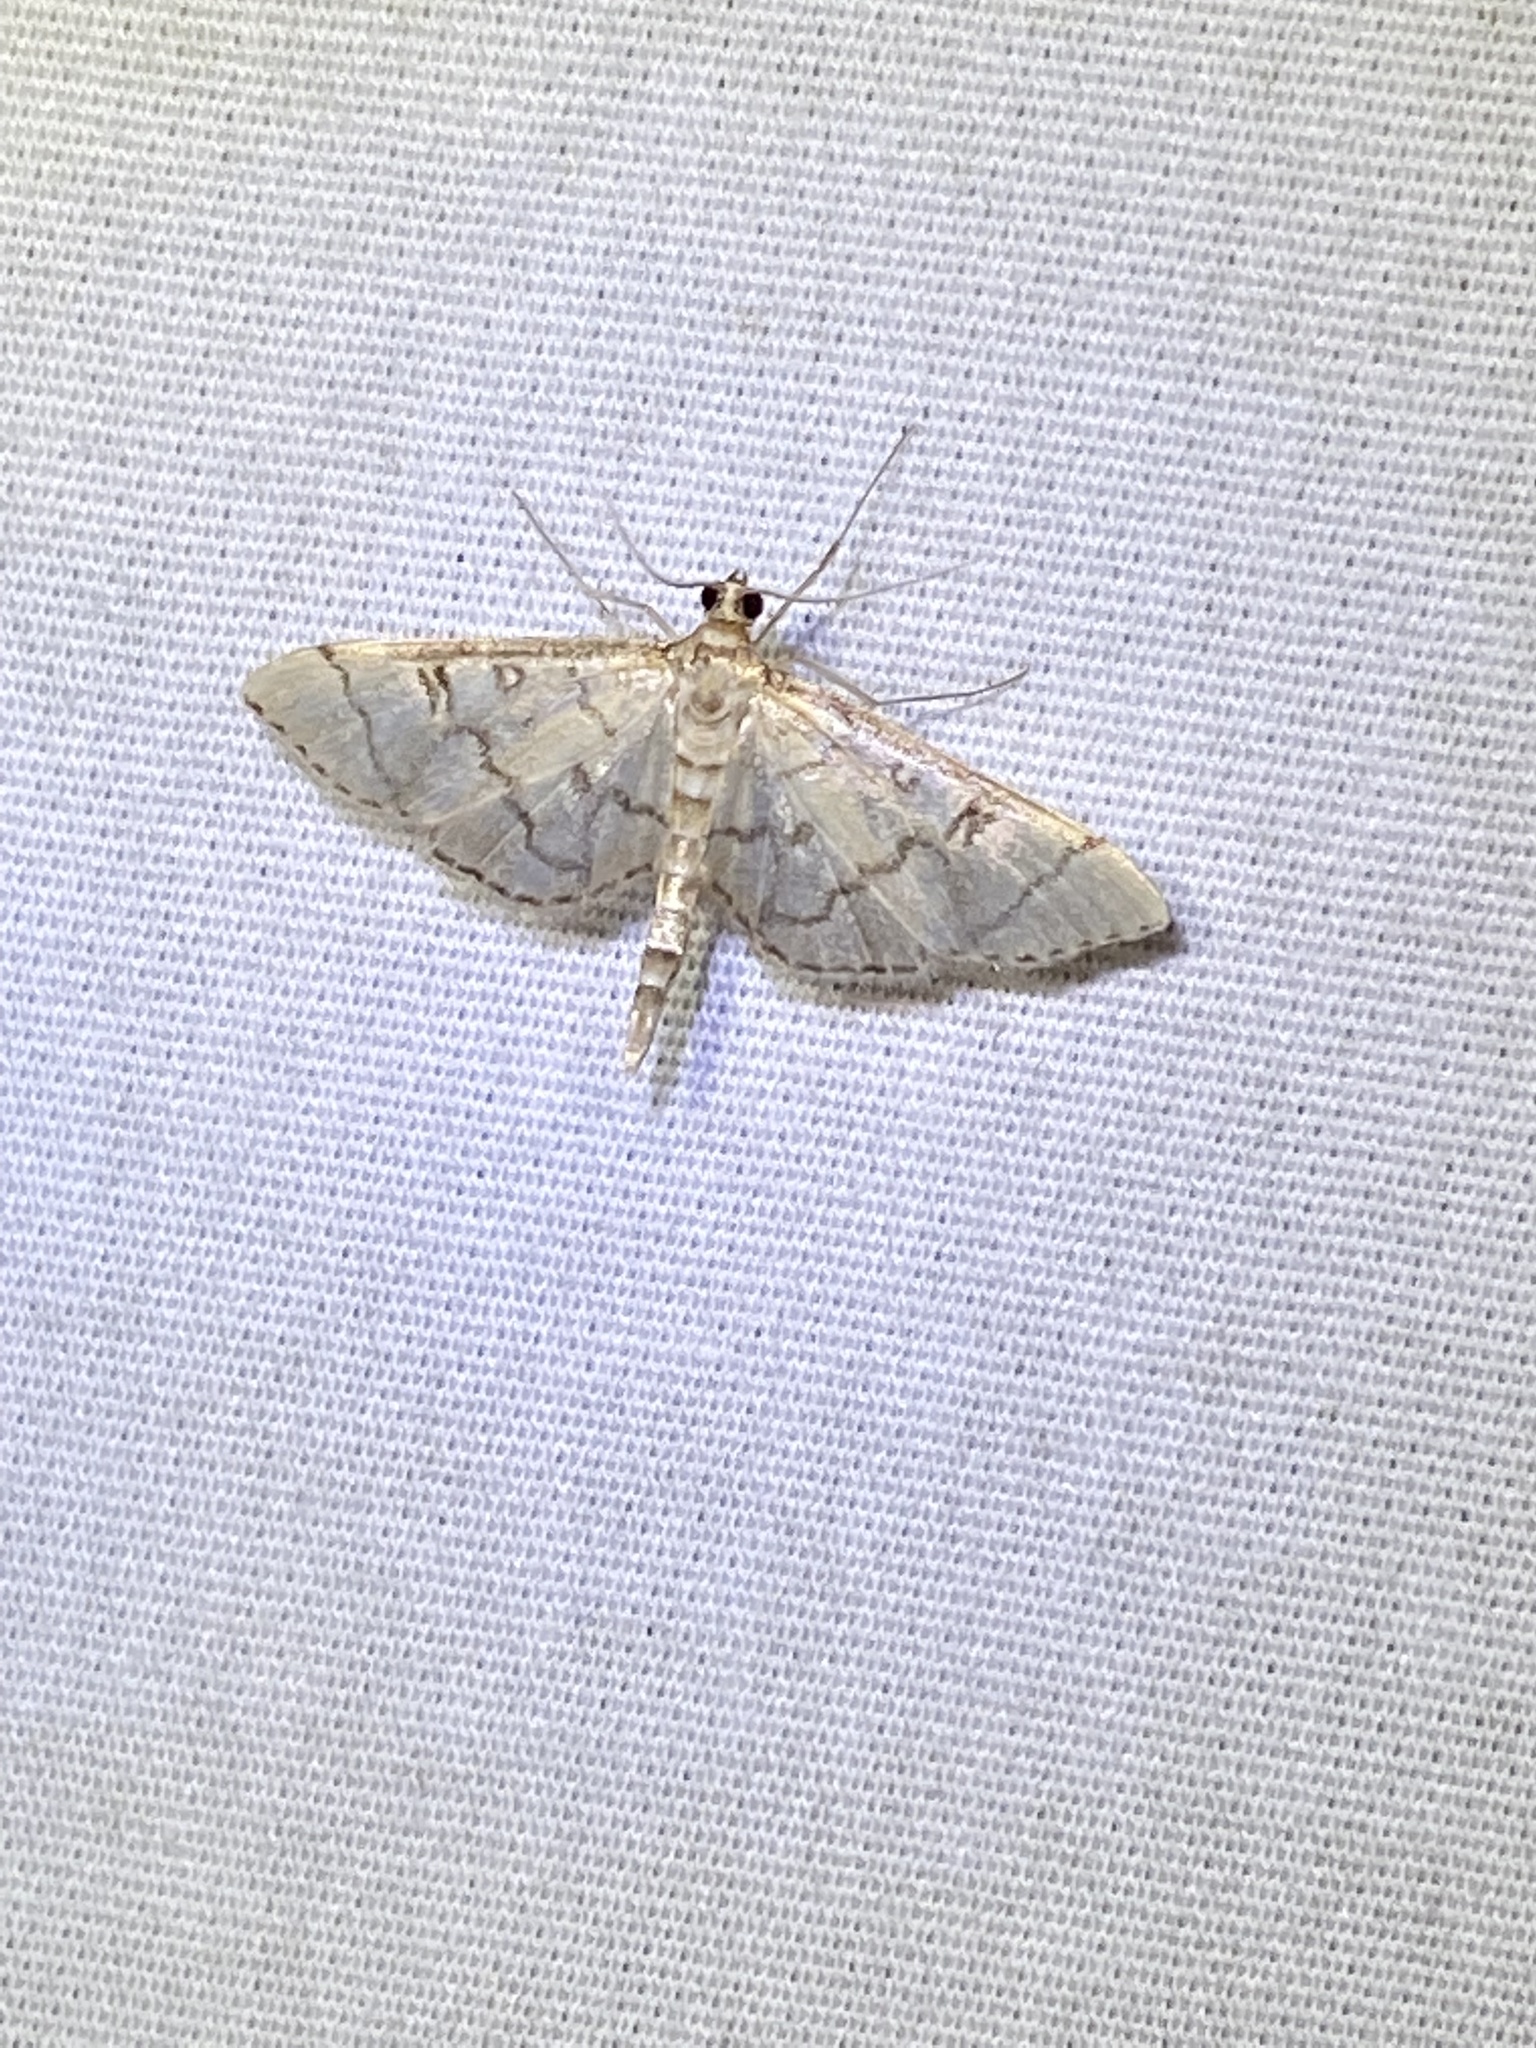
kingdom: Animalia
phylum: Arthropoda
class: Insecta
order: Lepidoptera
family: Crambidae
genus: Lamprosema
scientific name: Lamprosema Blepharomastix ranalis
